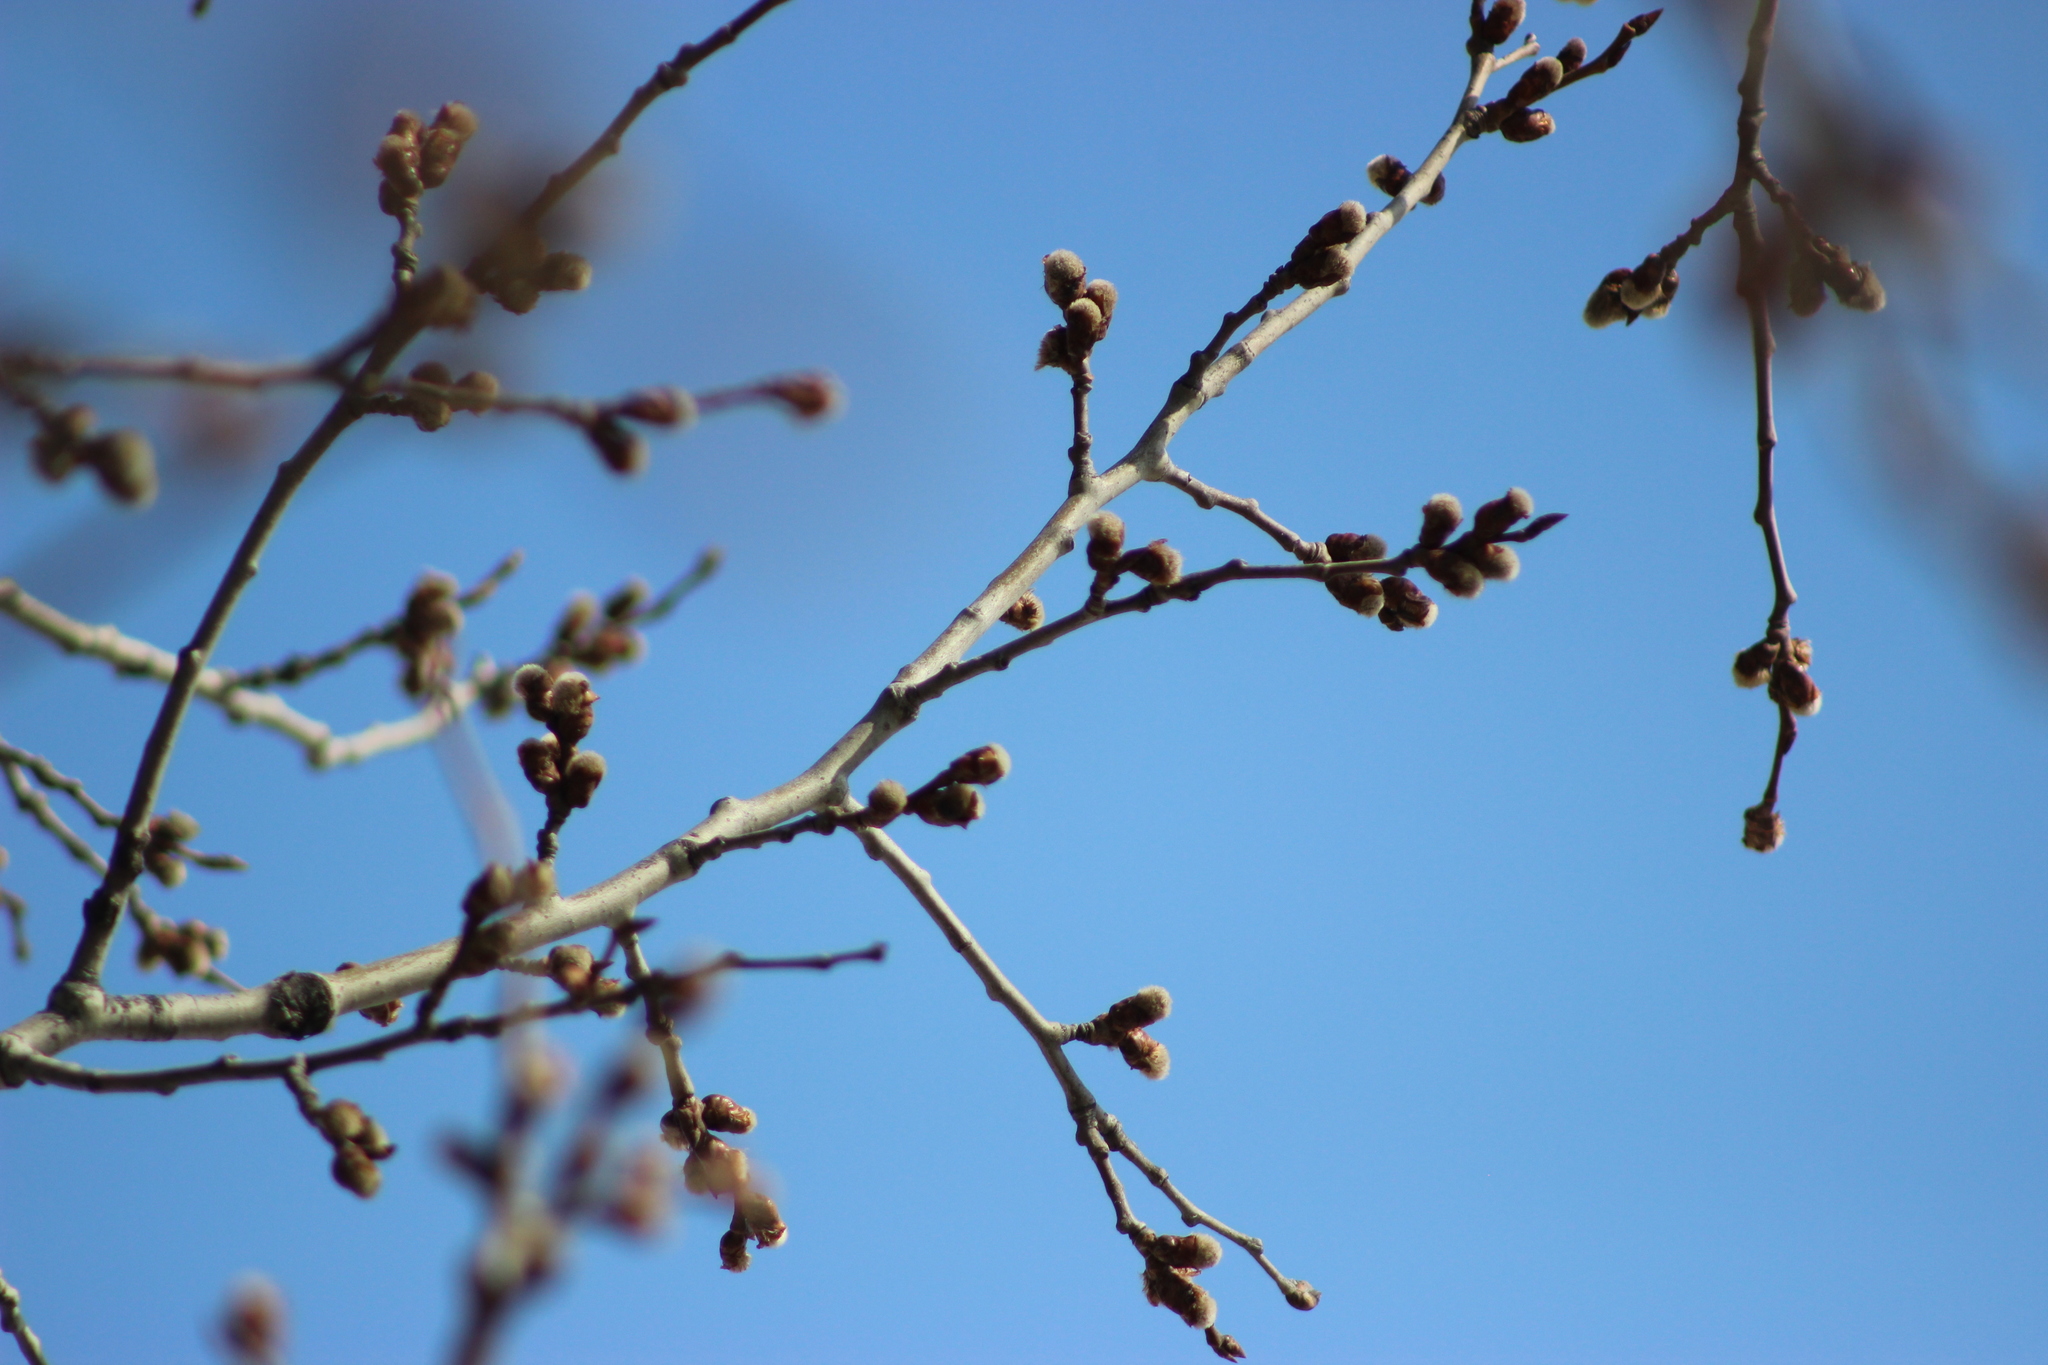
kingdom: Plantae
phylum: Tracheophyta
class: Magnoliopsida
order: Malpighiales
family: Salicaceae
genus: Populus
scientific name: Populus tremula
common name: European aspen
